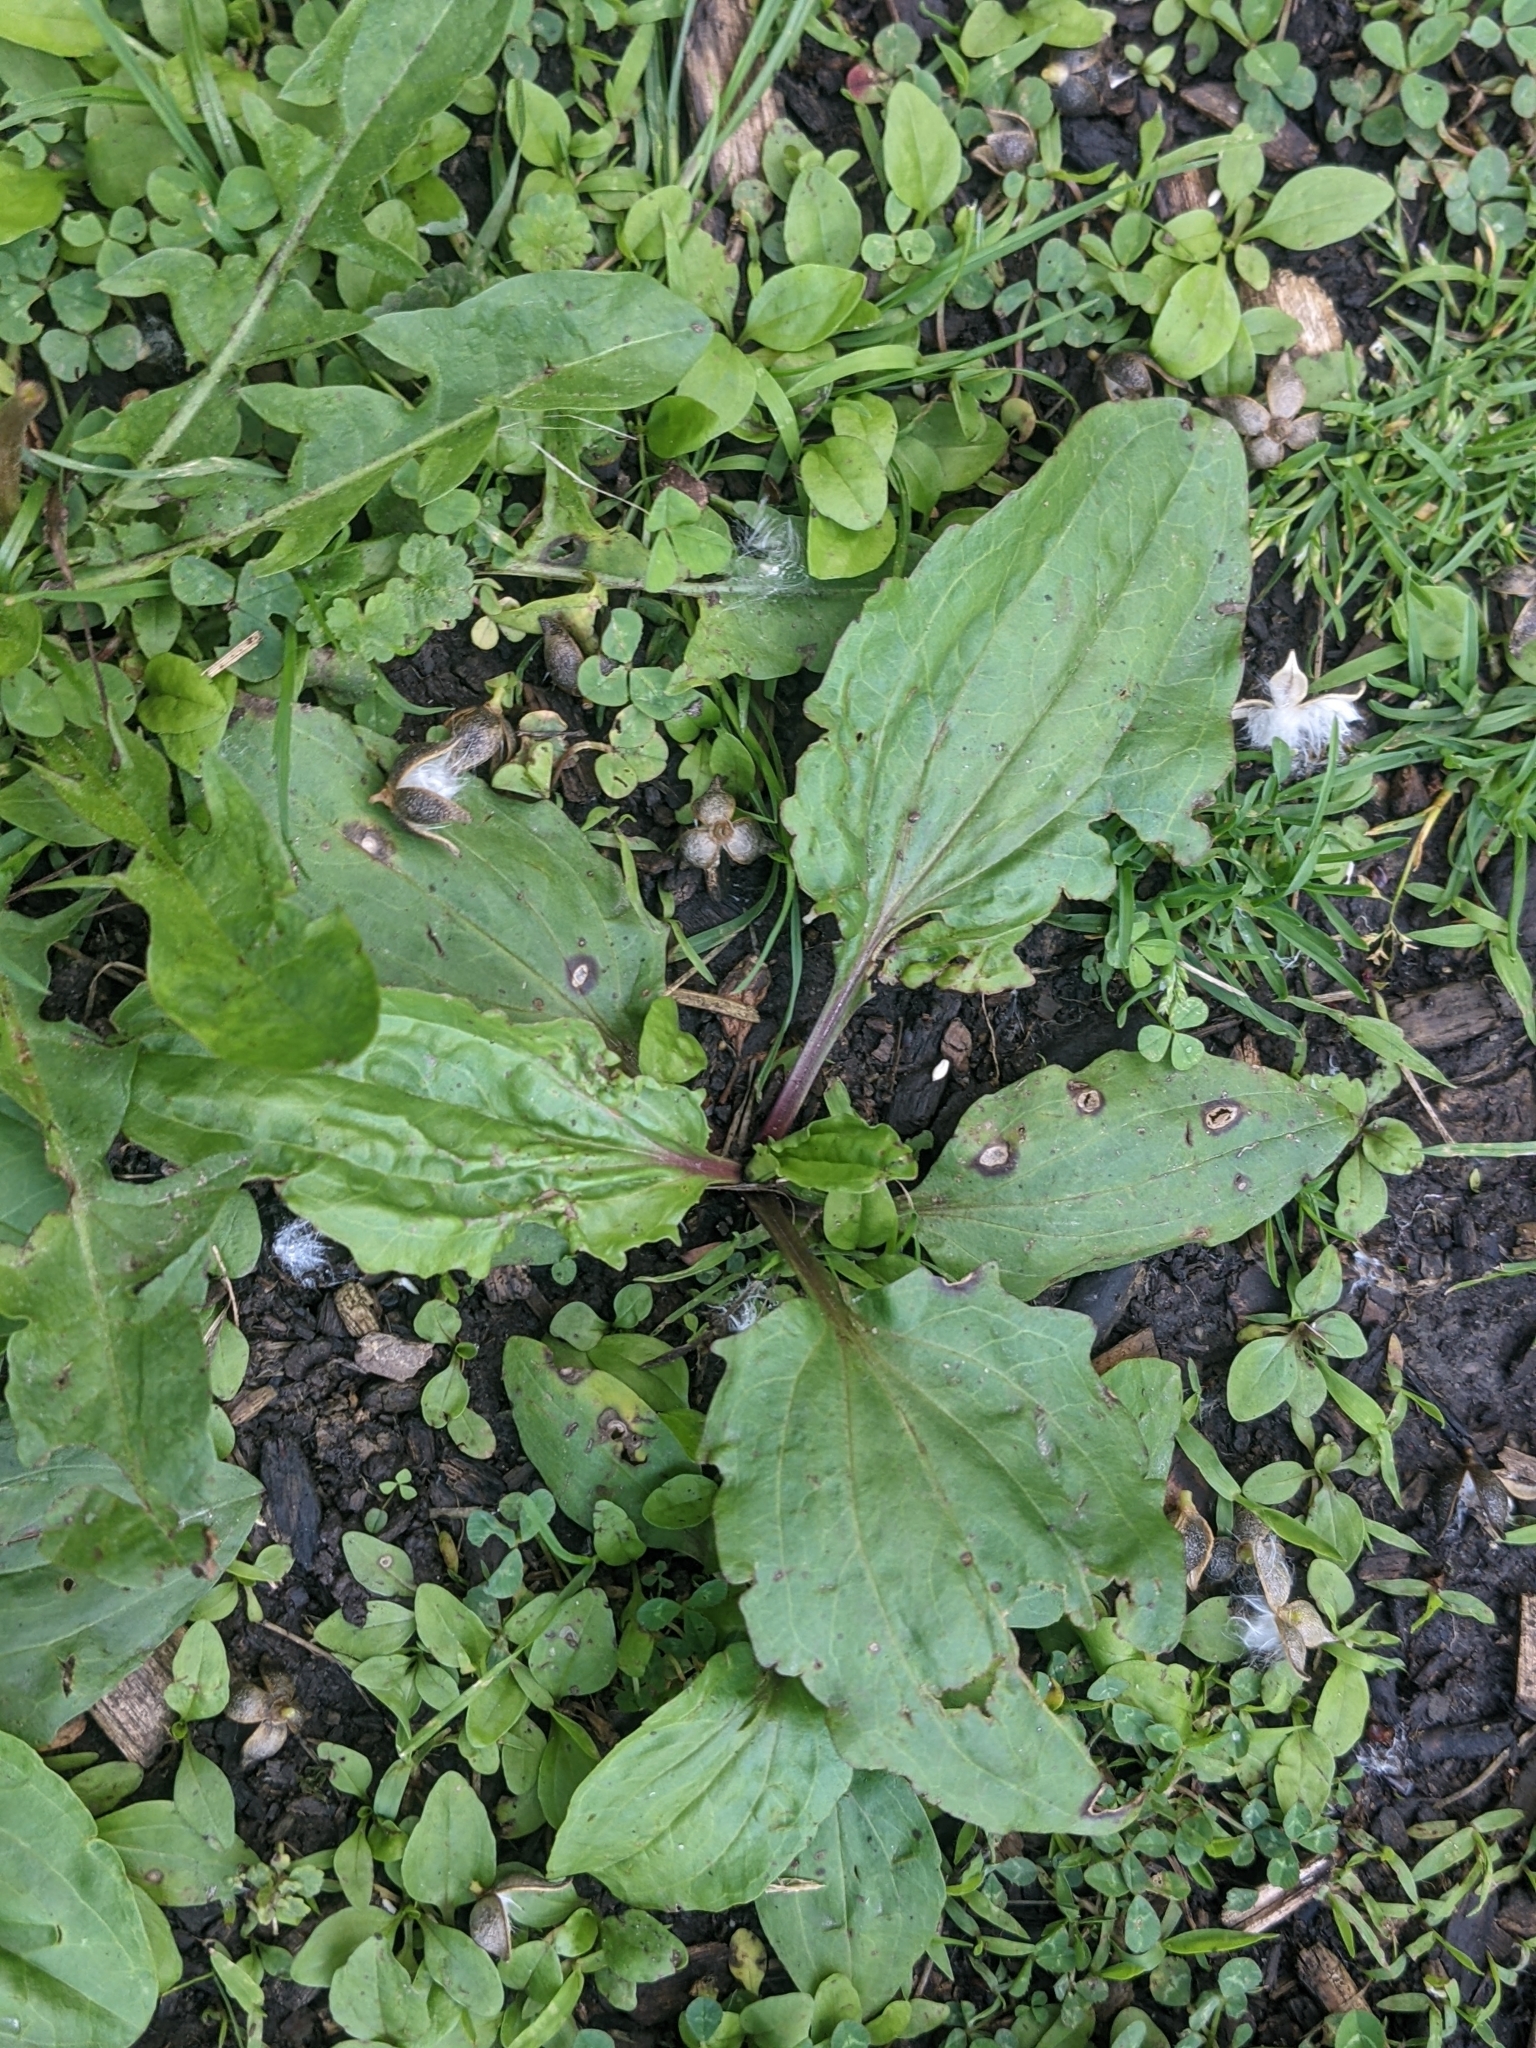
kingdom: Plantae
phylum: Tracheophyta
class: Magnoliopsida
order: Lamiales
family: Plantaginaceae
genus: Plantago
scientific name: Plantago rugelii
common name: American plantain
